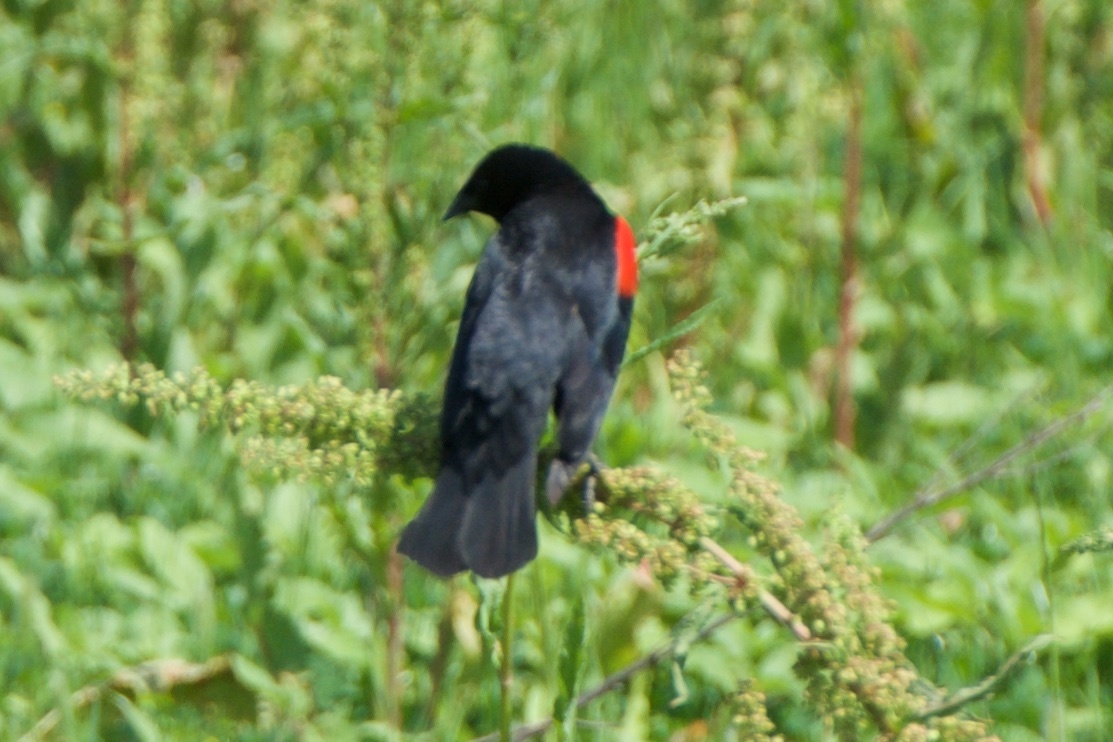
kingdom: Animalia
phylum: Chordata
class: Aves
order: Passeriformes
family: Icteridae
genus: Agelaius
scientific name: Agelaius phoeniceus
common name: Red-winged blackbird
